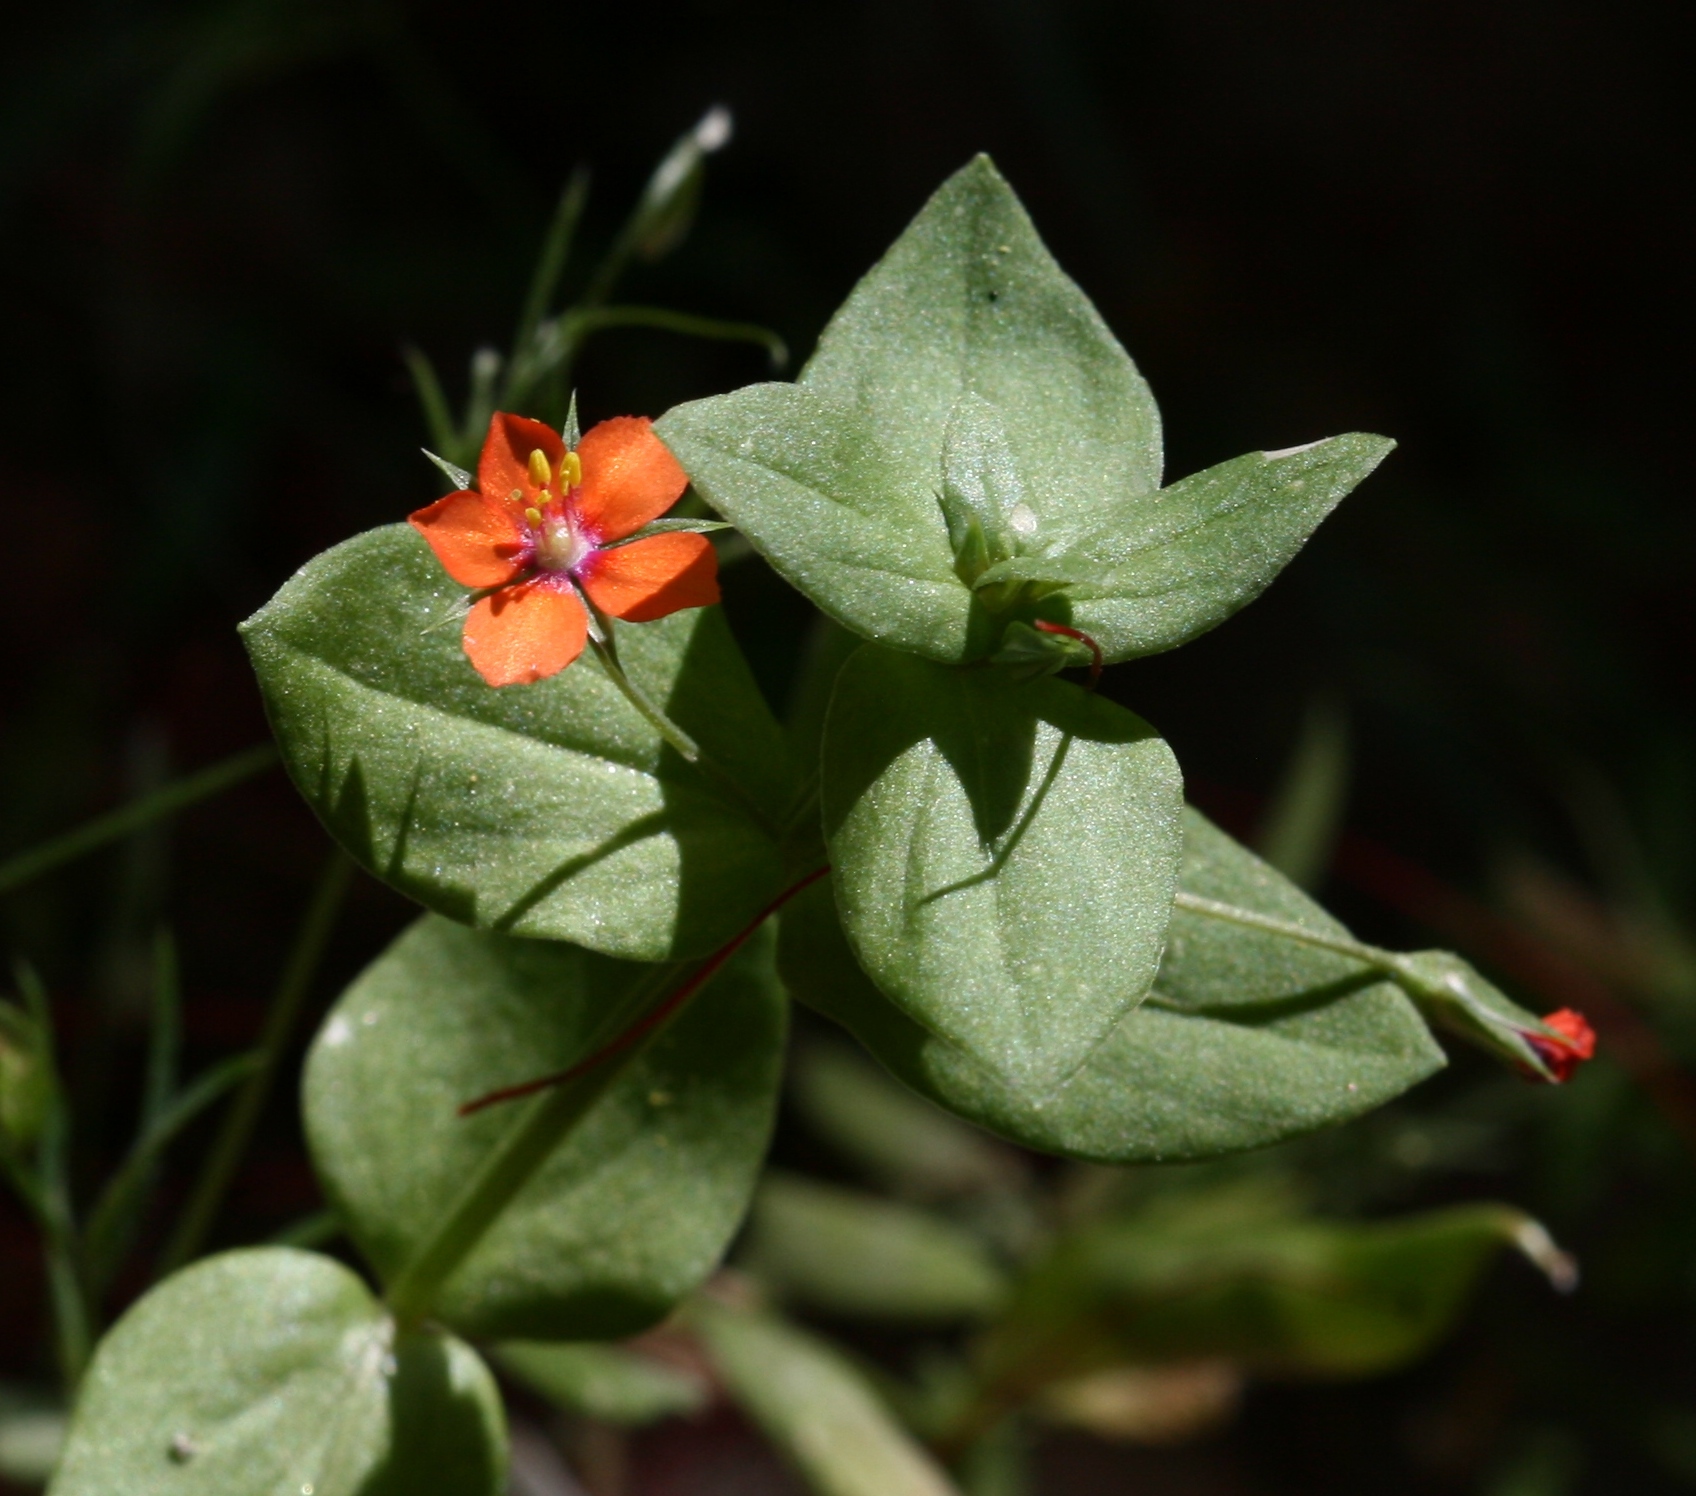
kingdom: Plantae
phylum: Tracheophyta
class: Magnoliopsida
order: Ericales
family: Primulaceae
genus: Lysimachia
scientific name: Lysimachia arvensis
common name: Scarlet pimpernel
